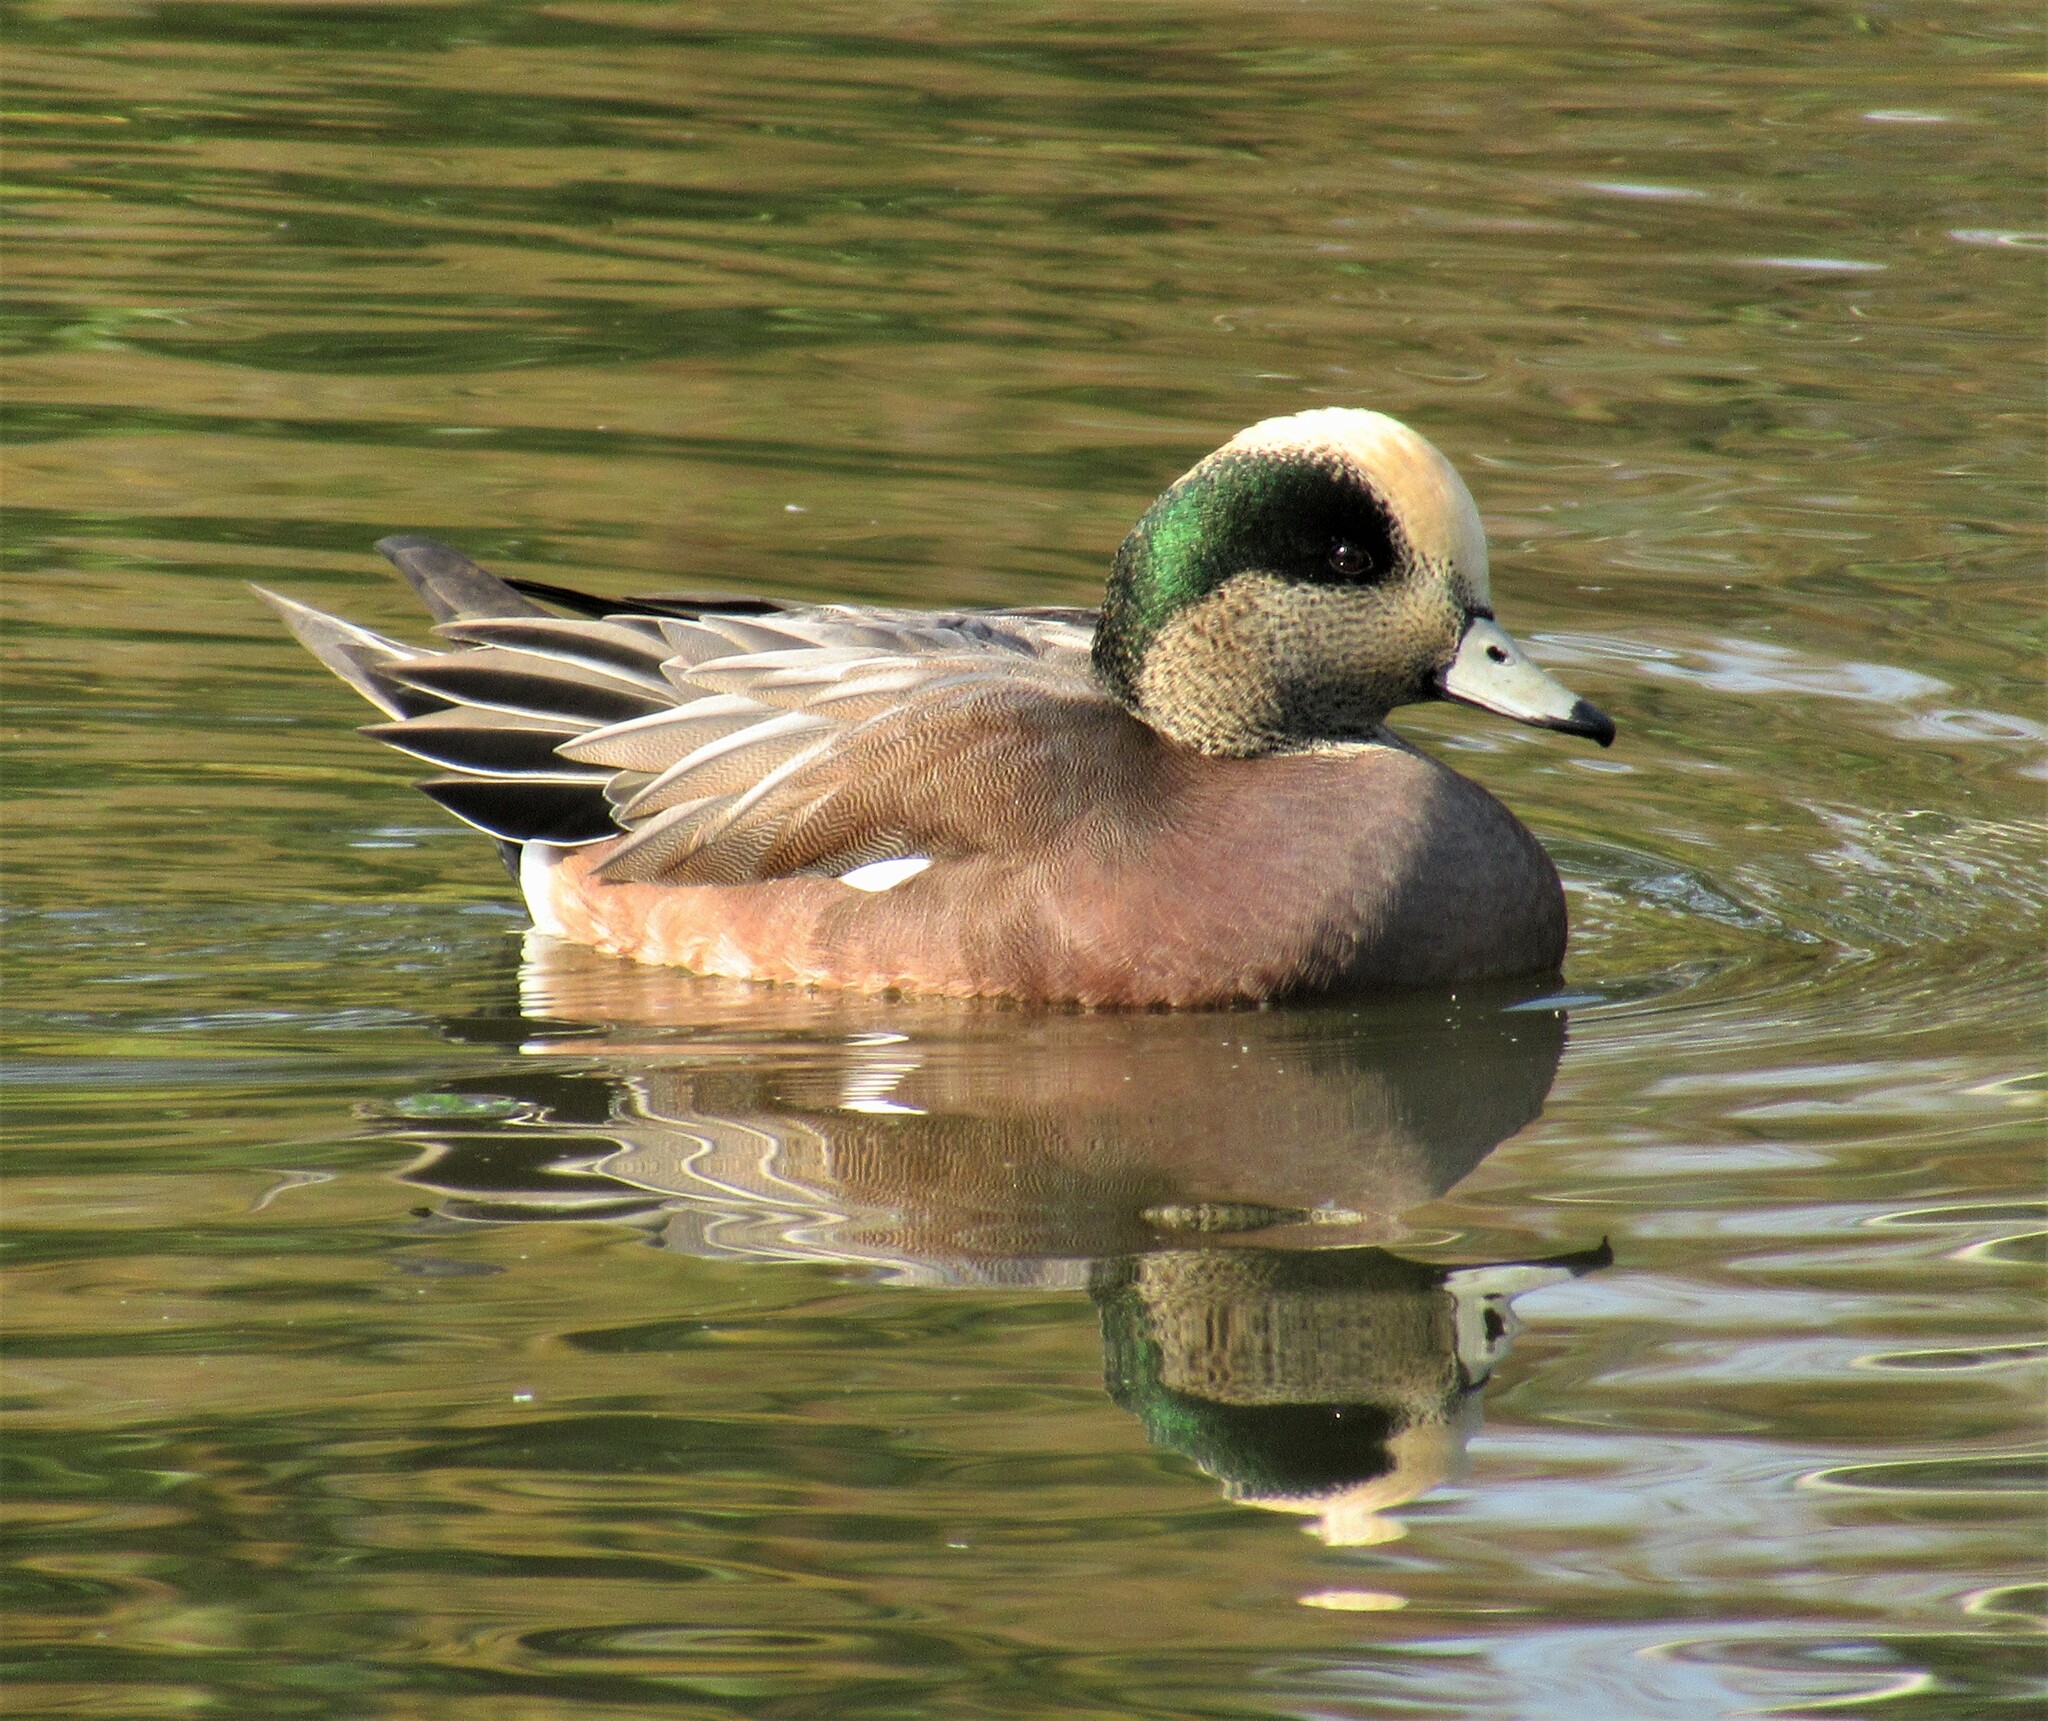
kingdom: Animalia
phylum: Chordata
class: Aves
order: Anseriformes
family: Anatidae
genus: Mareca
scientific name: Mareca americana
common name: American wigeon
